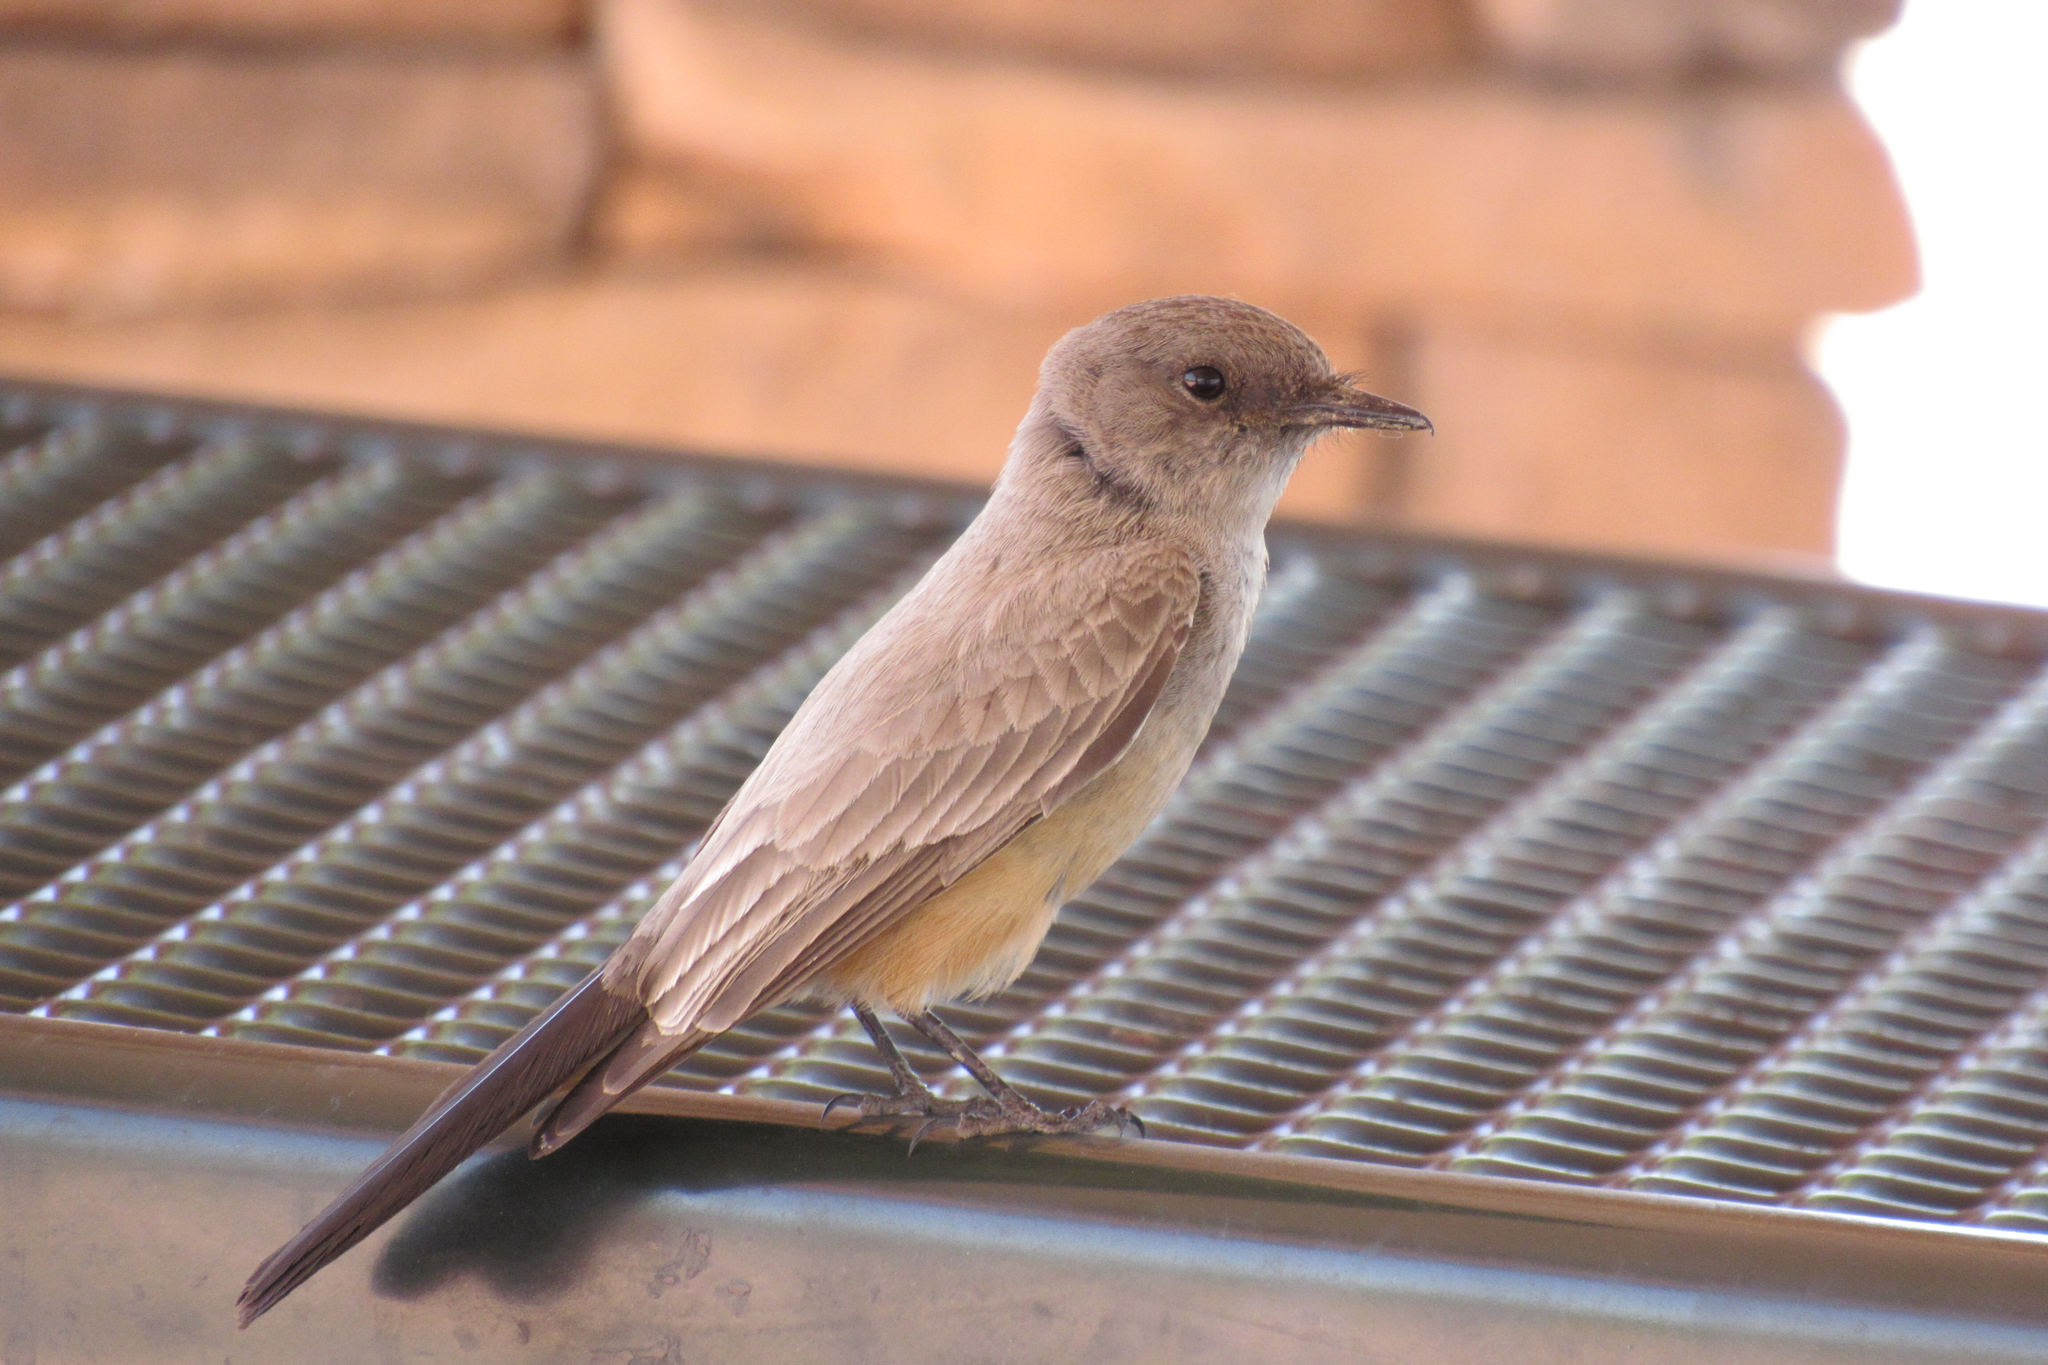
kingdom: Animalia
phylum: Chordata
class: Aves
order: Passeriformes
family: Tyrannidae
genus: Sayornis
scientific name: Sayornis saya
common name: Say's phoebe
